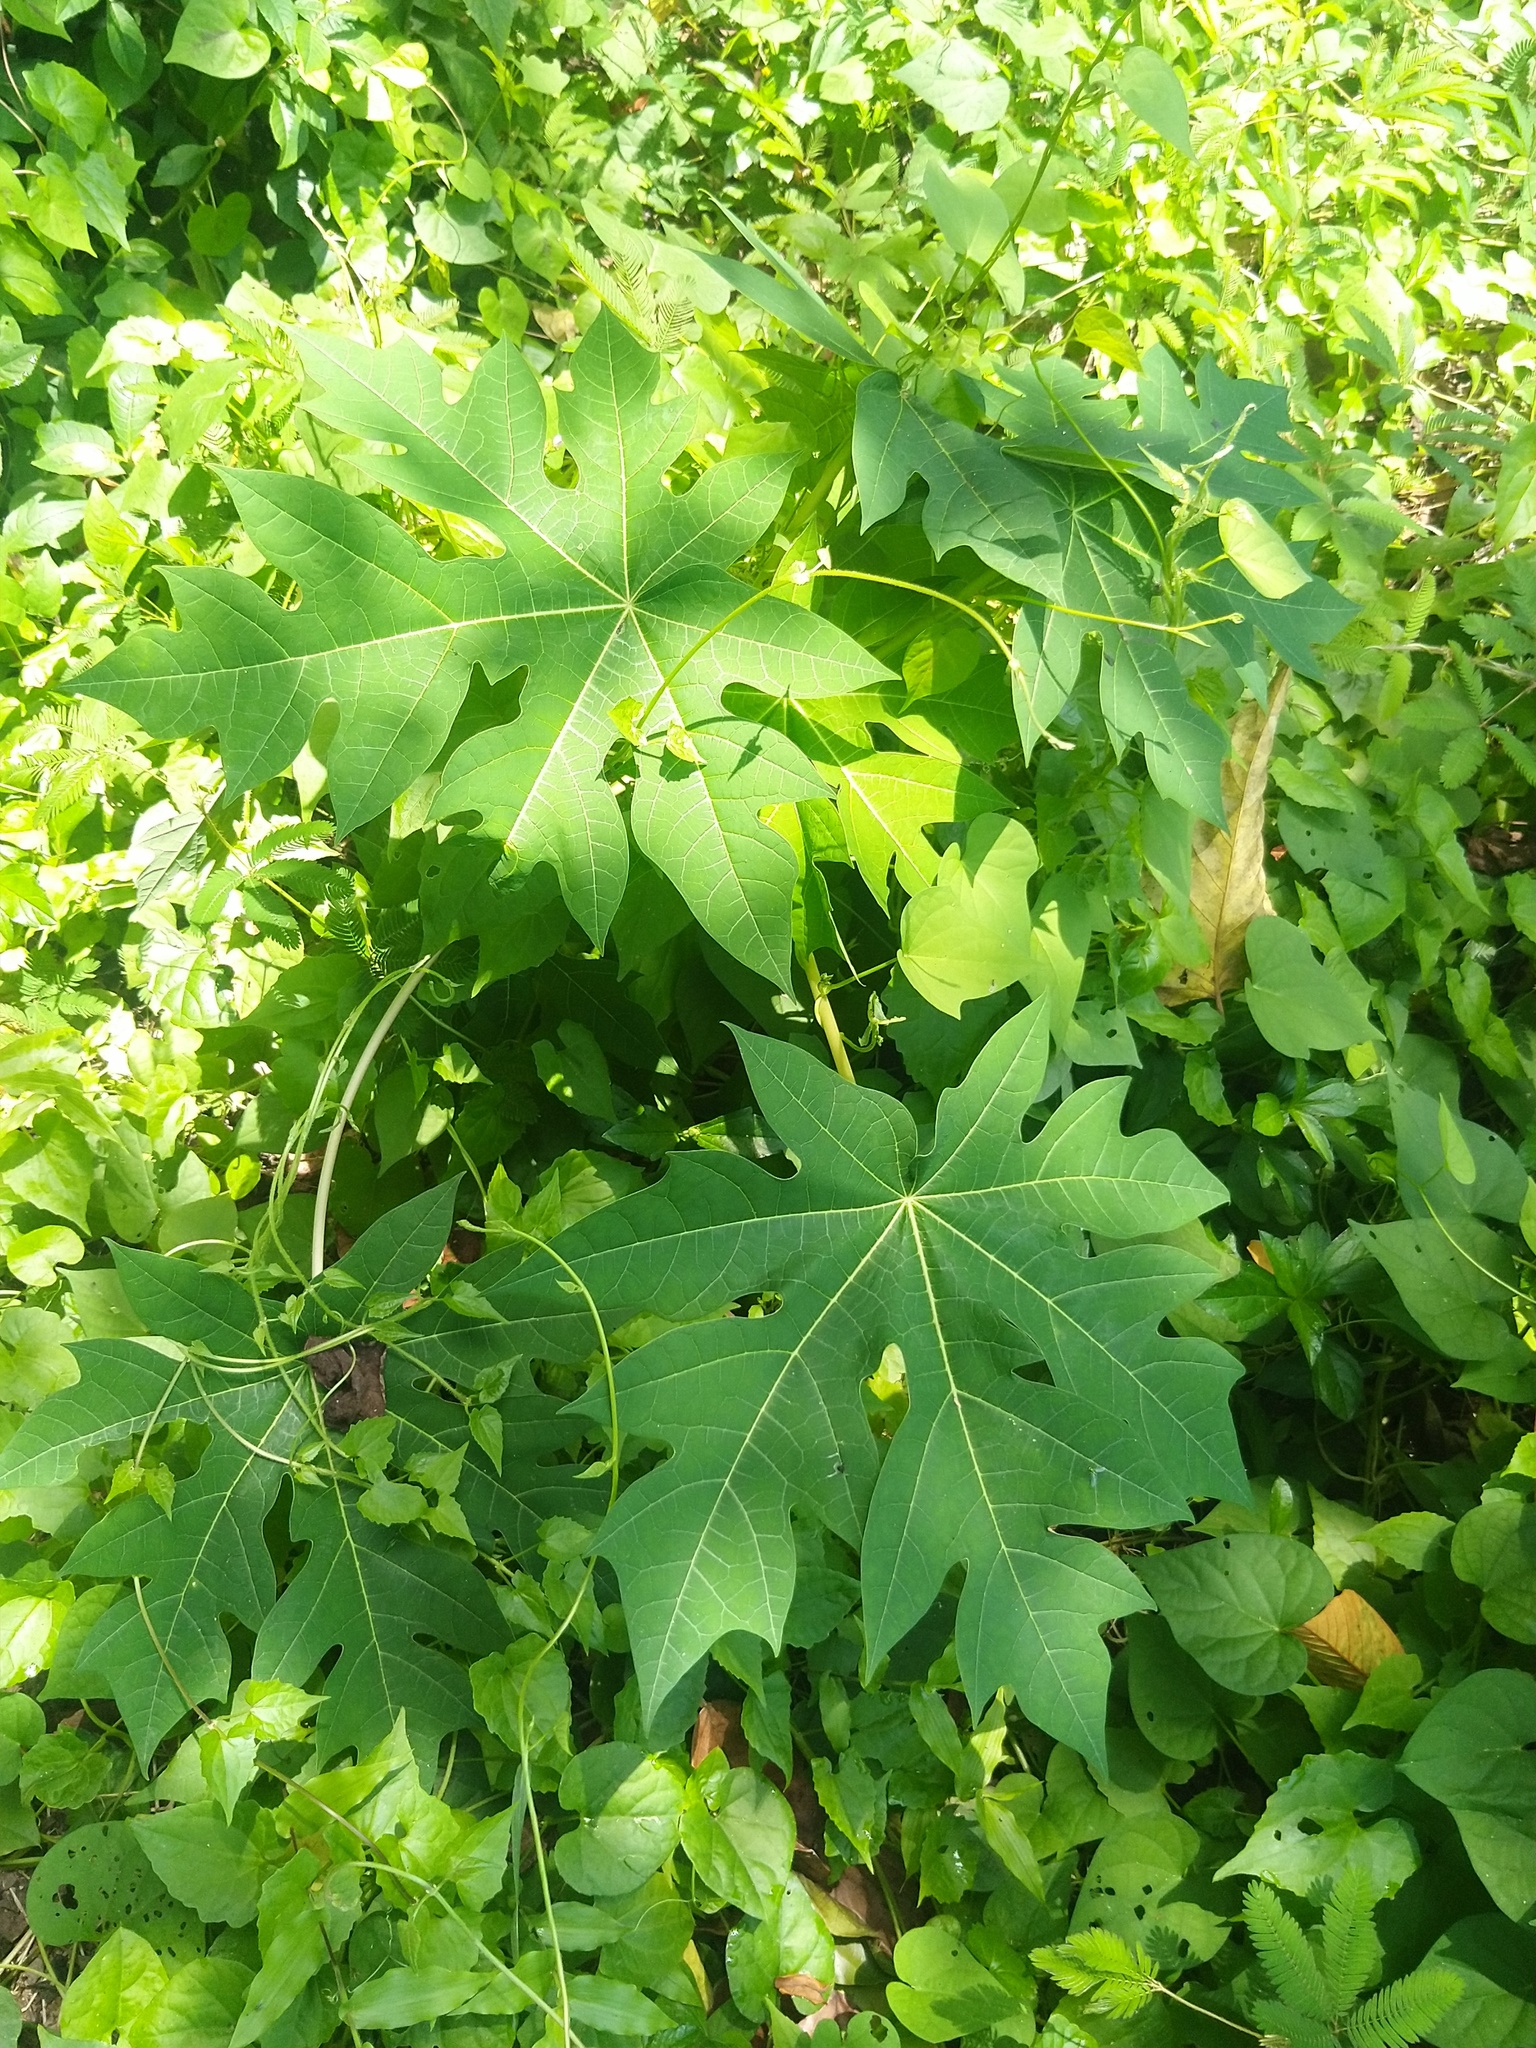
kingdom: Plantae
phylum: Tracheophyta
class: Magnoliopsida
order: Brassicales
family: Caricaceae
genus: Carica
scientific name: Carica papaya
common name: Papaya
